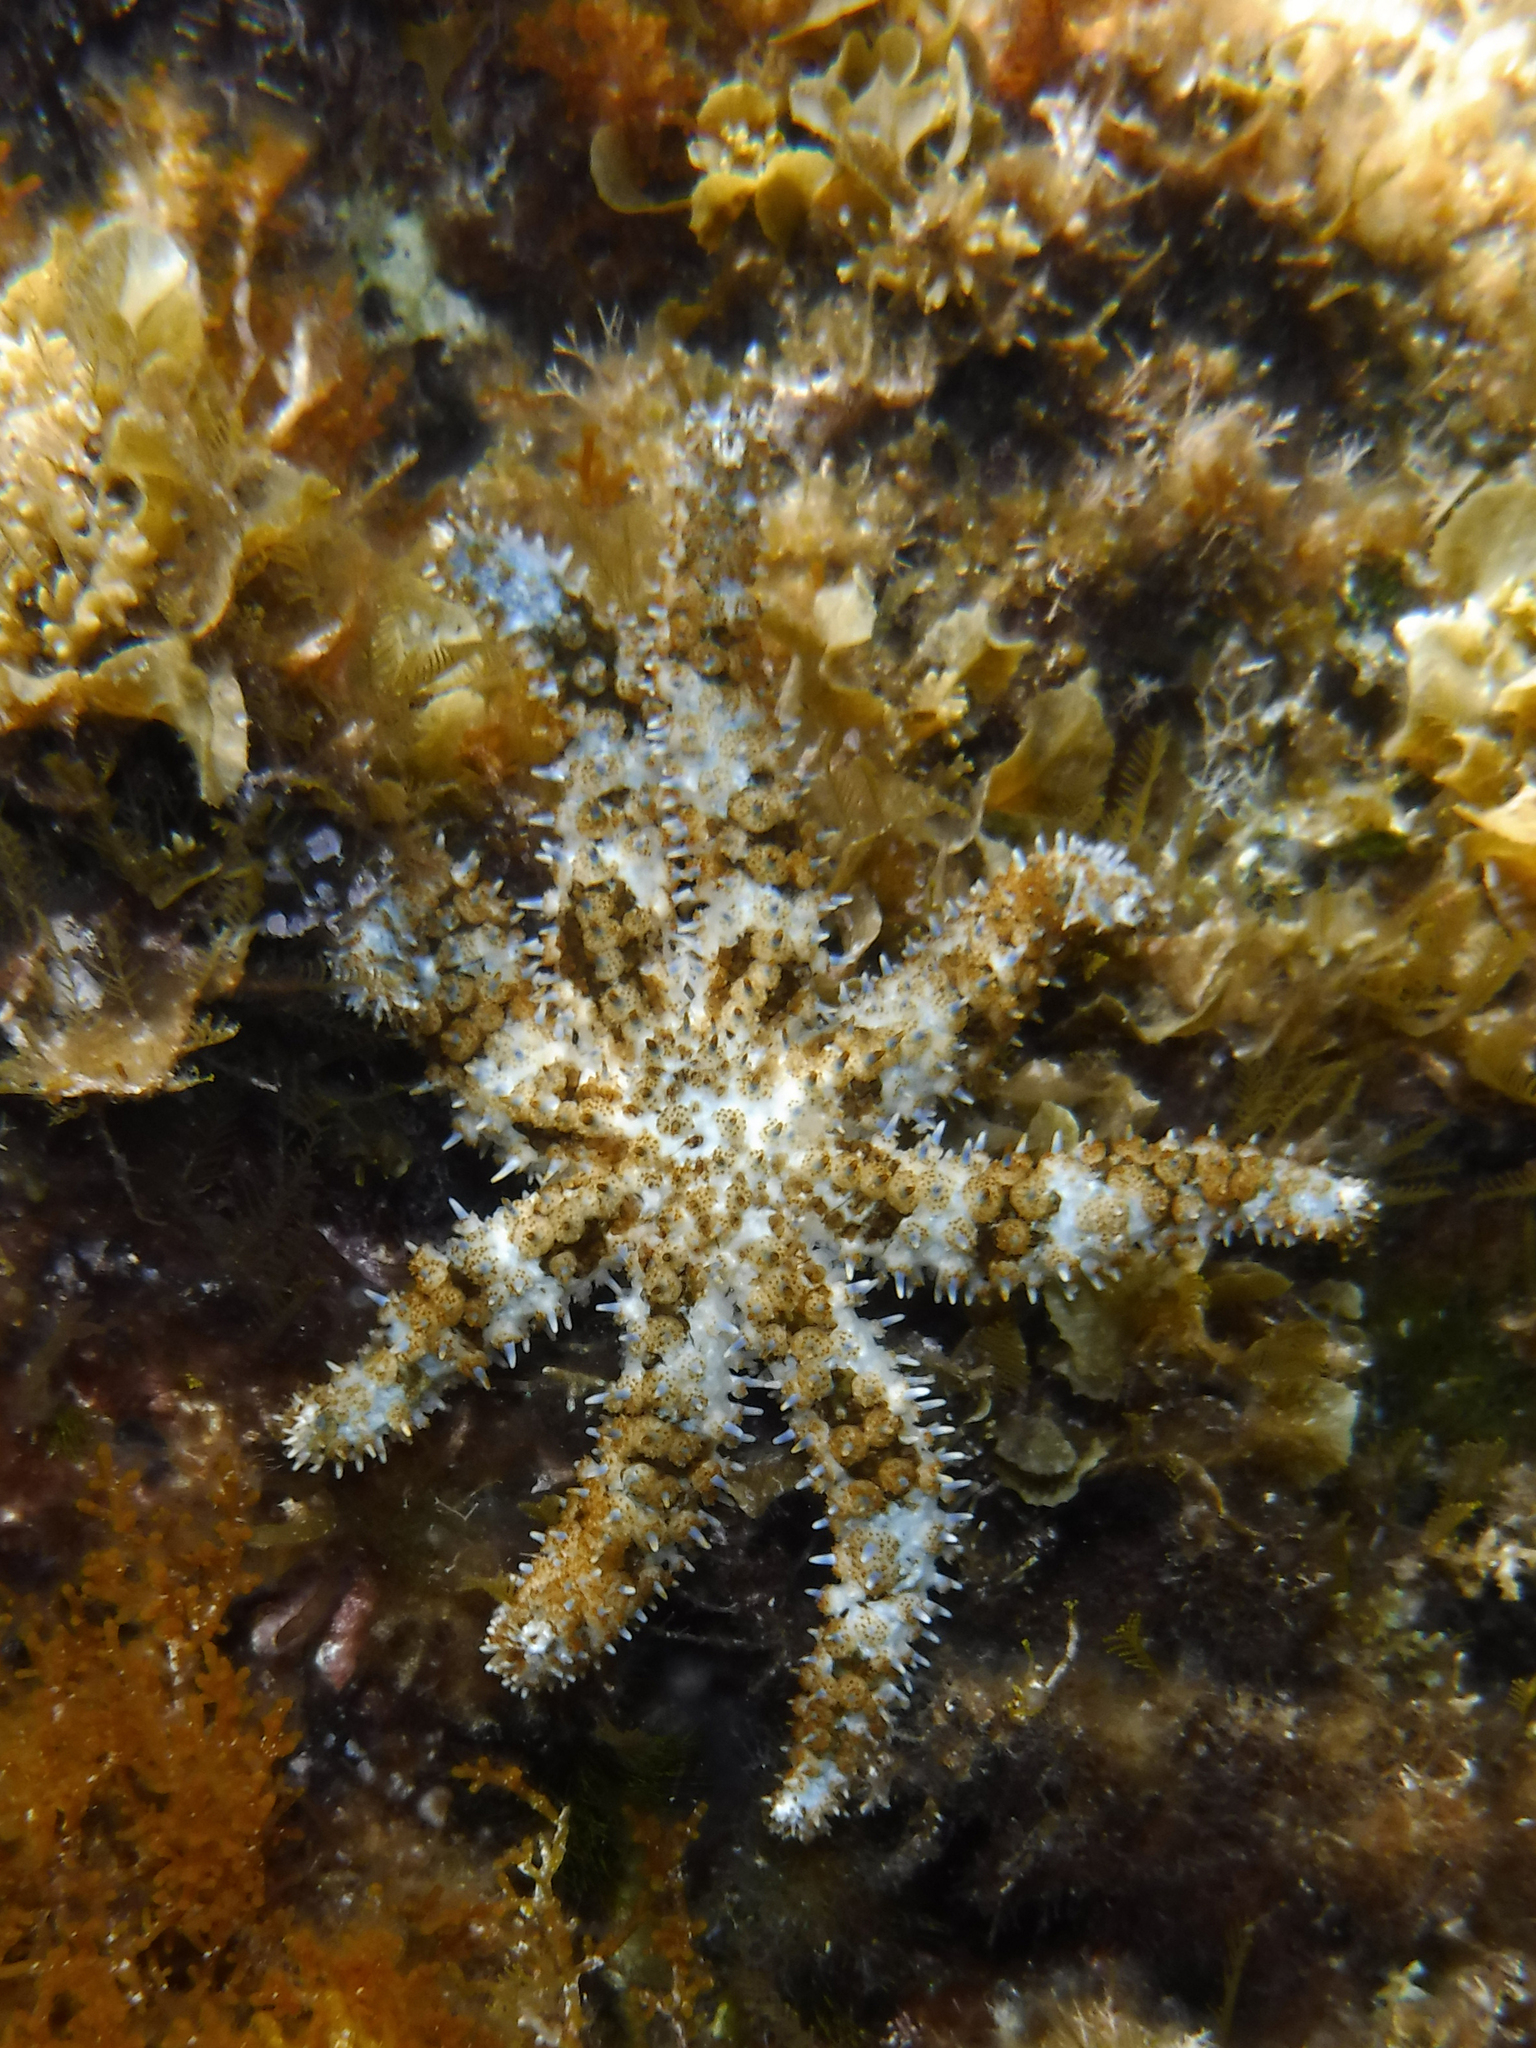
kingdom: Animalia
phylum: Echinodermata
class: Asteroidea
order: Forcipulatida
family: Asteriidae
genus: Coscinasterias
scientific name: Coscinasterias tenuispina
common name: Blue spiny starfish
